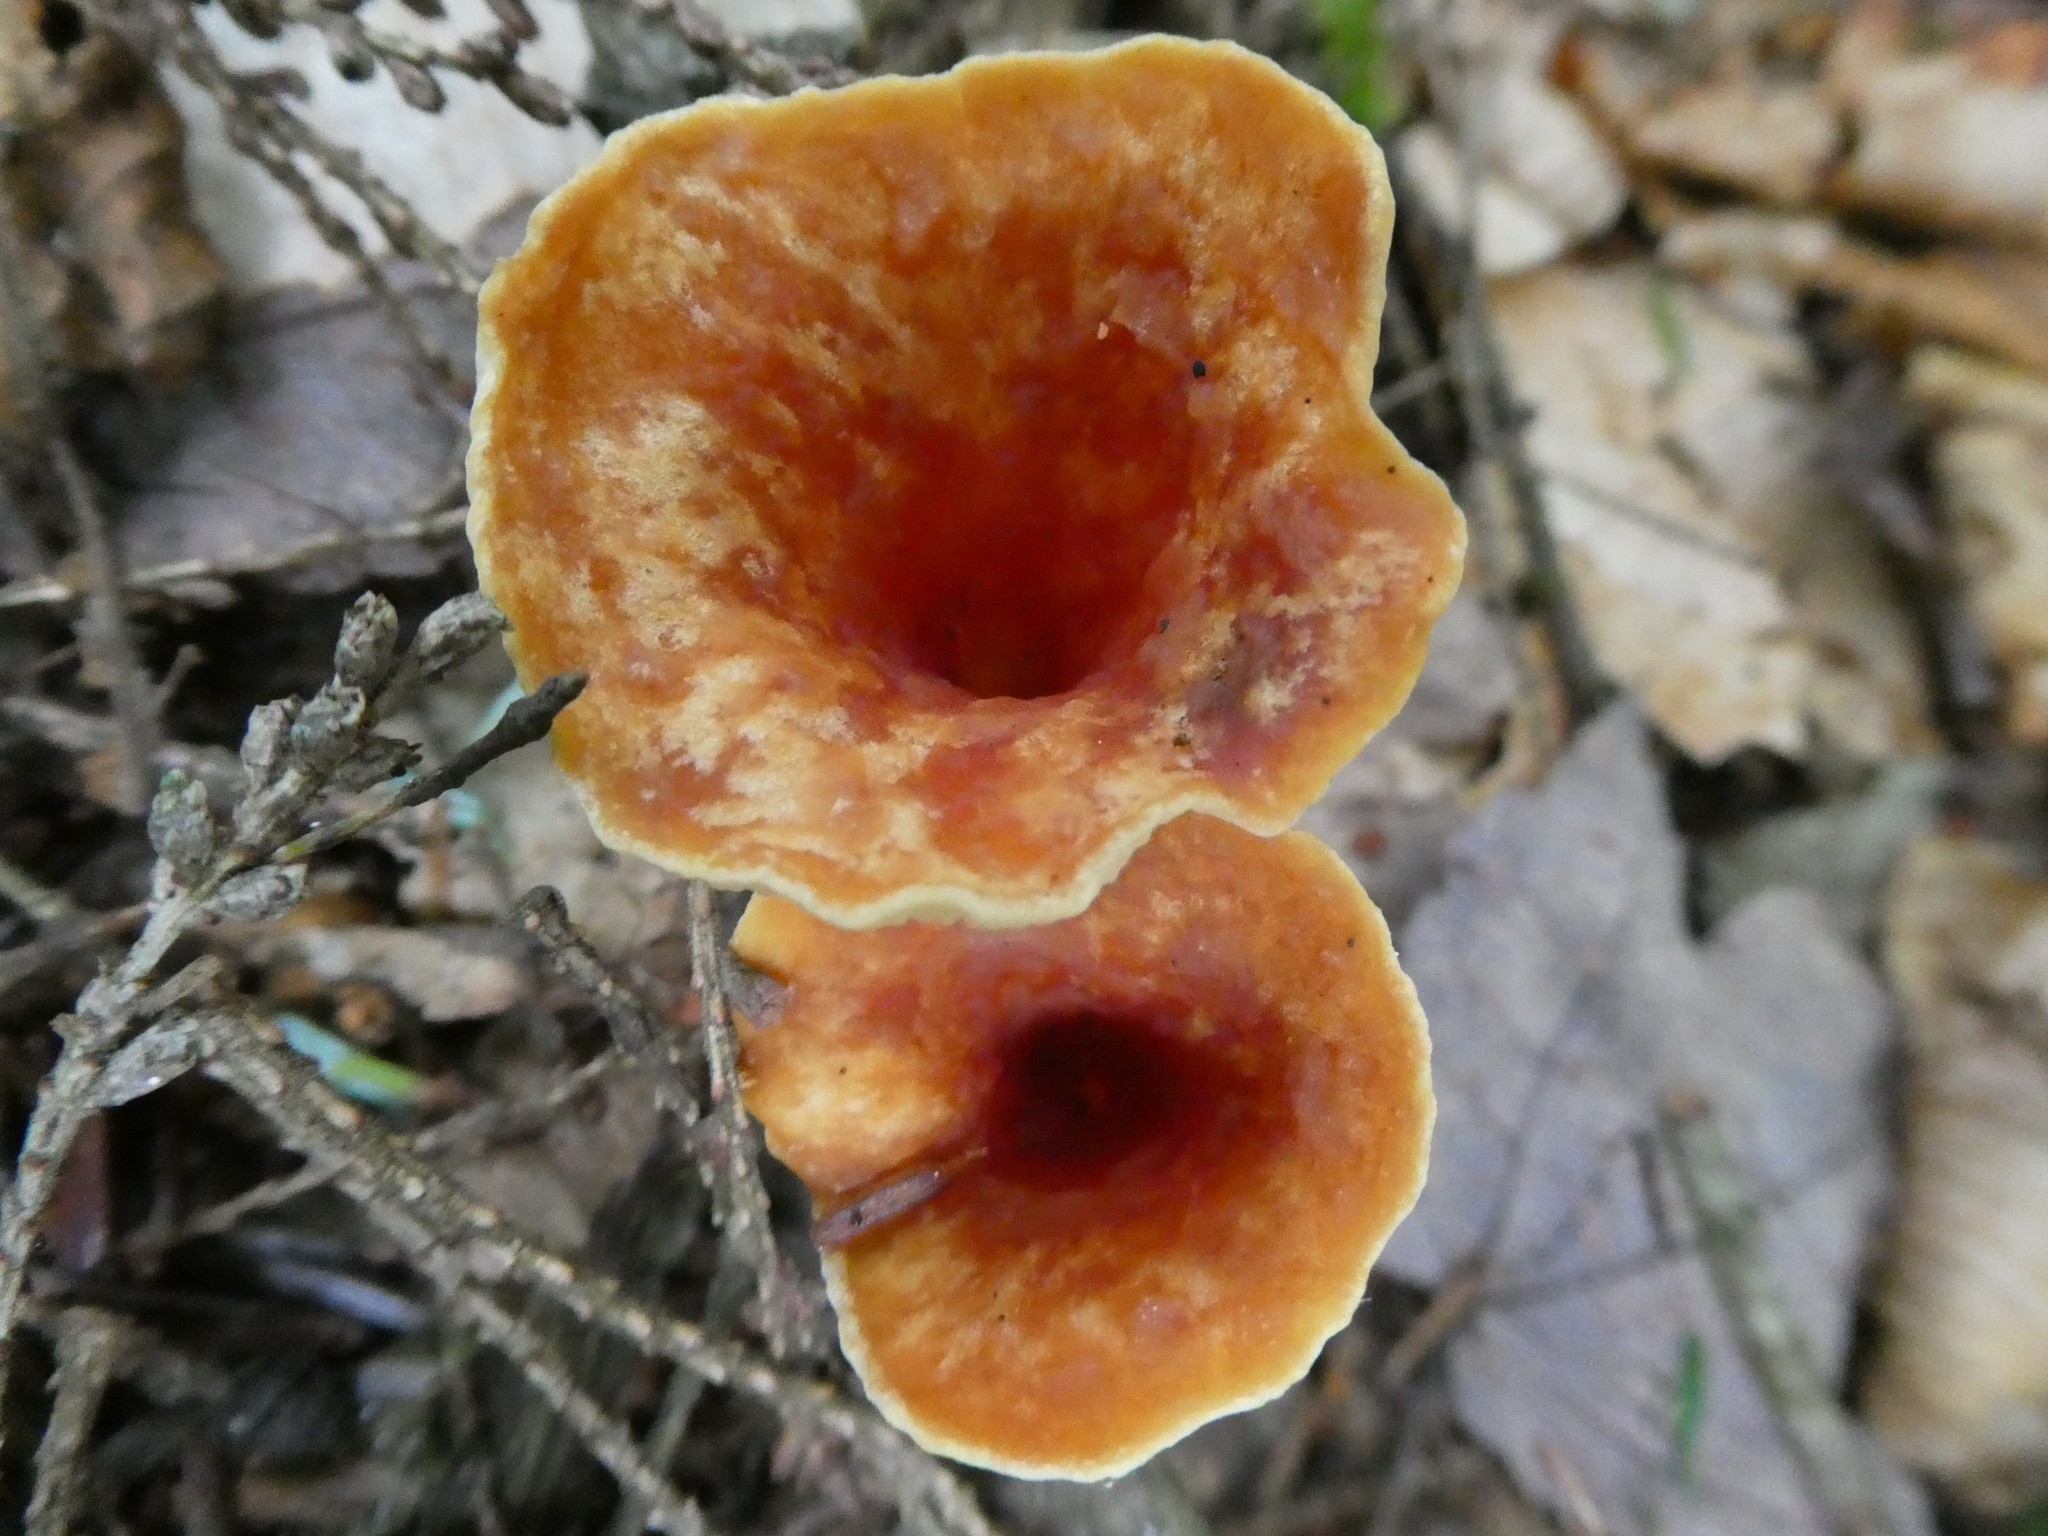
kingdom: Fungi
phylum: Basidiomycota
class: Agaricomycetes
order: Gomphales
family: Gomphaceae
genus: Turbinellus
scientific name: Turbinellus floccosus
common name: Scaly chanterelle
